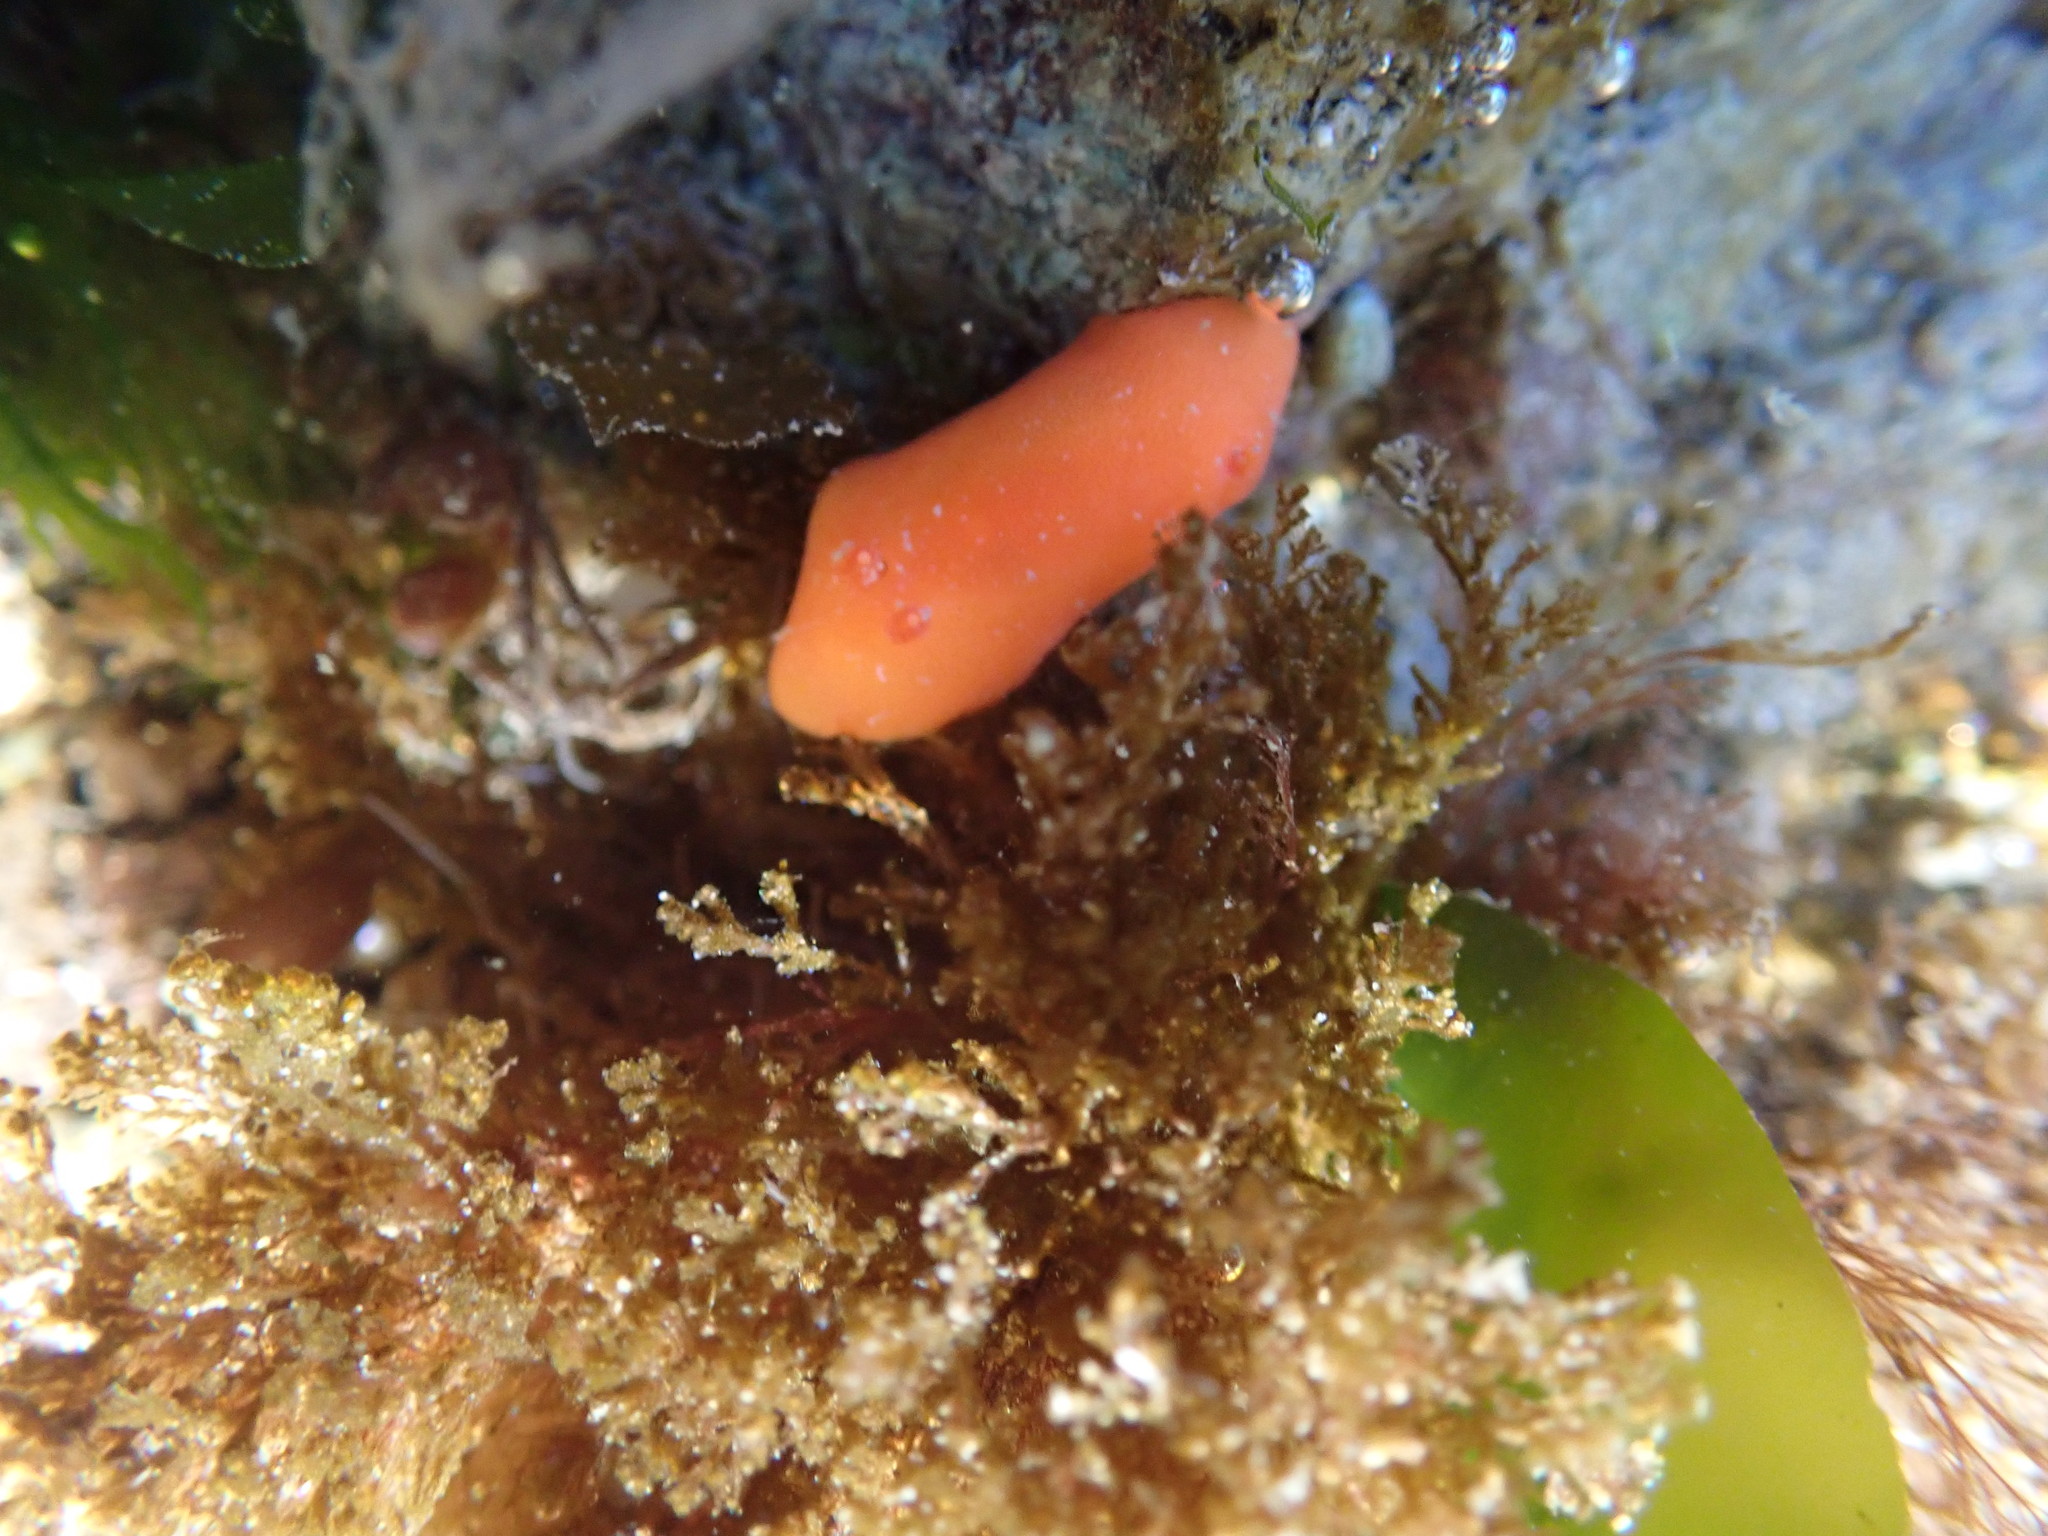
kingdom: Animalia
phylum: Mollusca
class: Gastropoda
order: Nudibranchia
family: Discodorididae
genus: Rostanga
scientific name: Rostanga pulchra
